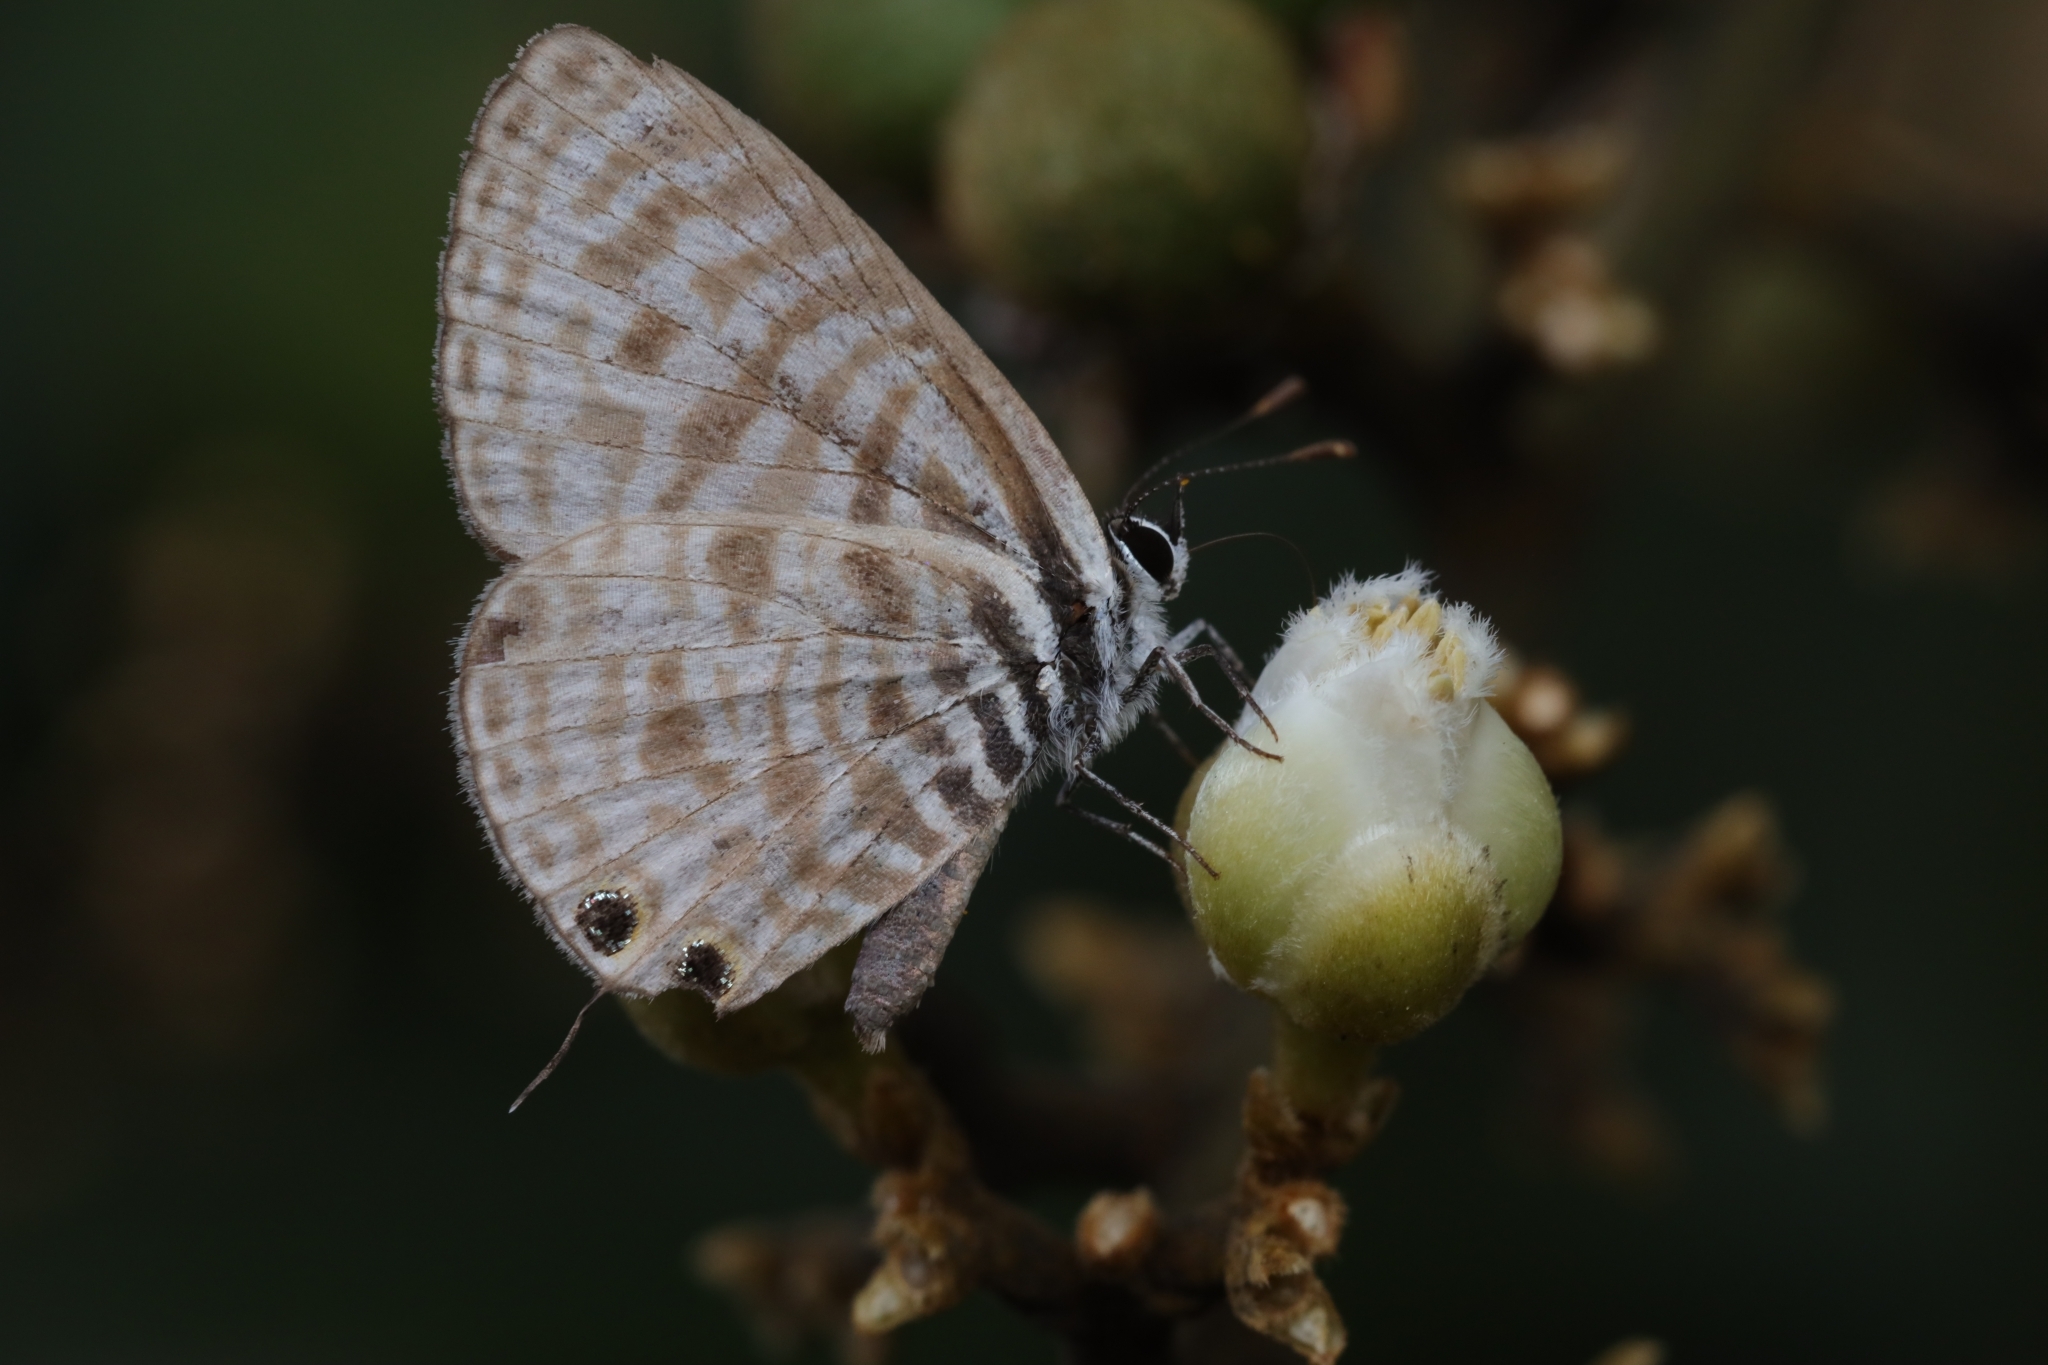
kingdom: Animalia
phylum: Arthropoda
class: Insecta
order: Lepidoptera
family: Lycaenidae
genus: Leptotes
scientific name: Leptotes
